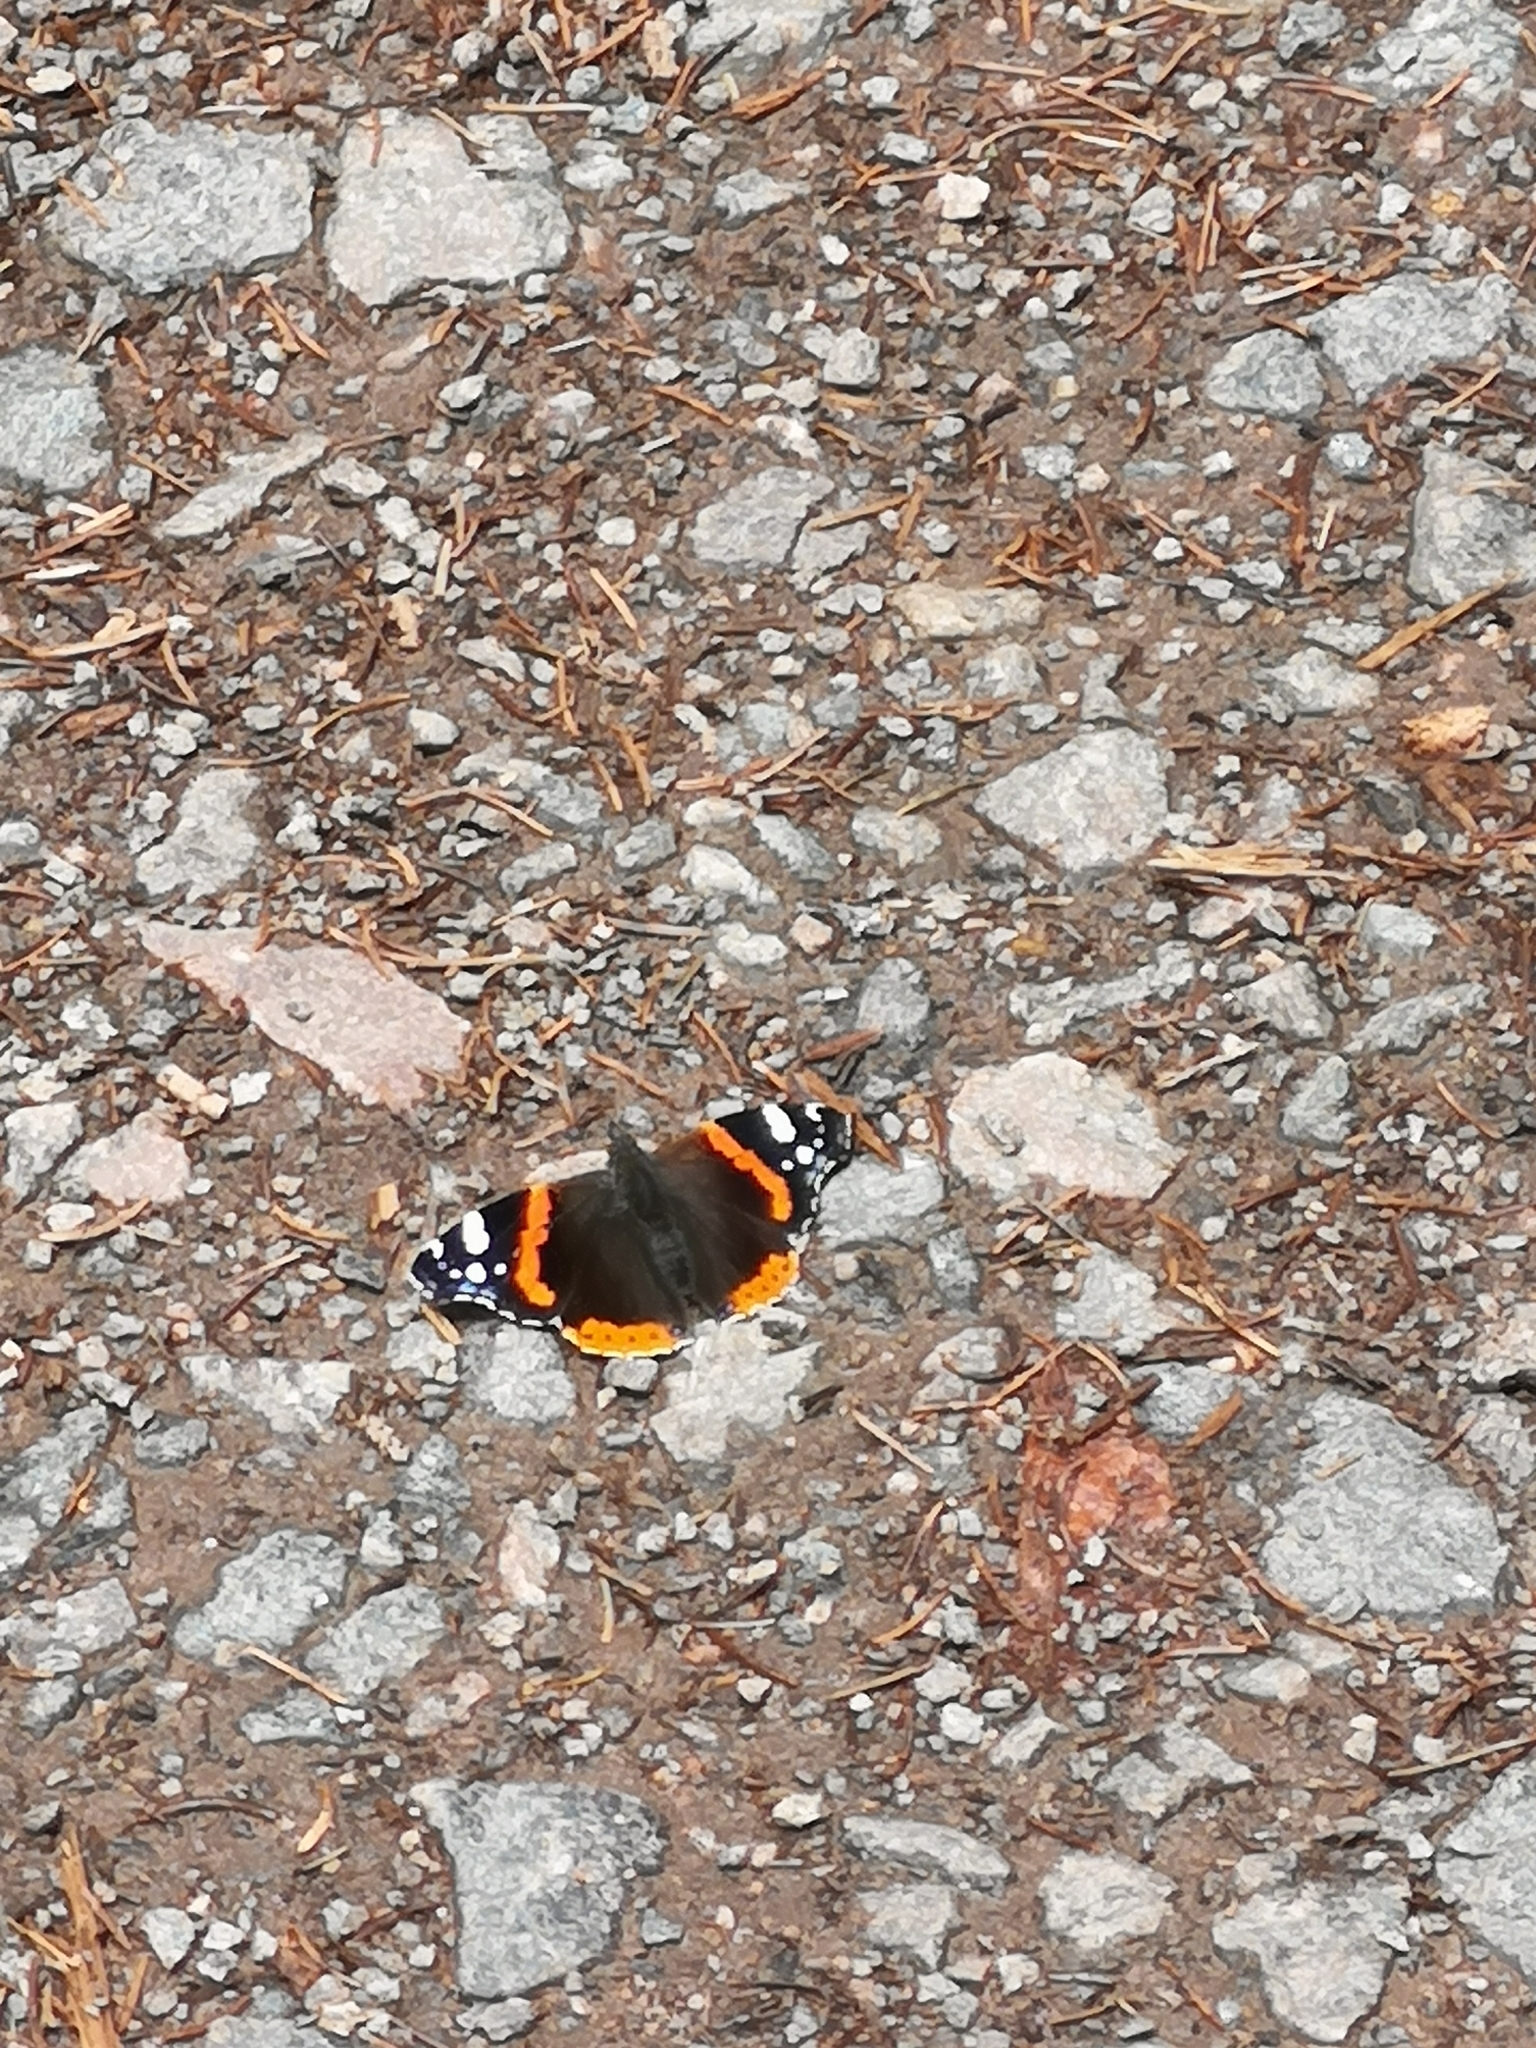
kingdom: Animalia
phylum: Arthropoda
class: Insecta
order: Lepidoptera
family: Nymphalidae
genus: Vanessa
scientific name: Vanessa atalanta
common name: Red admiral
